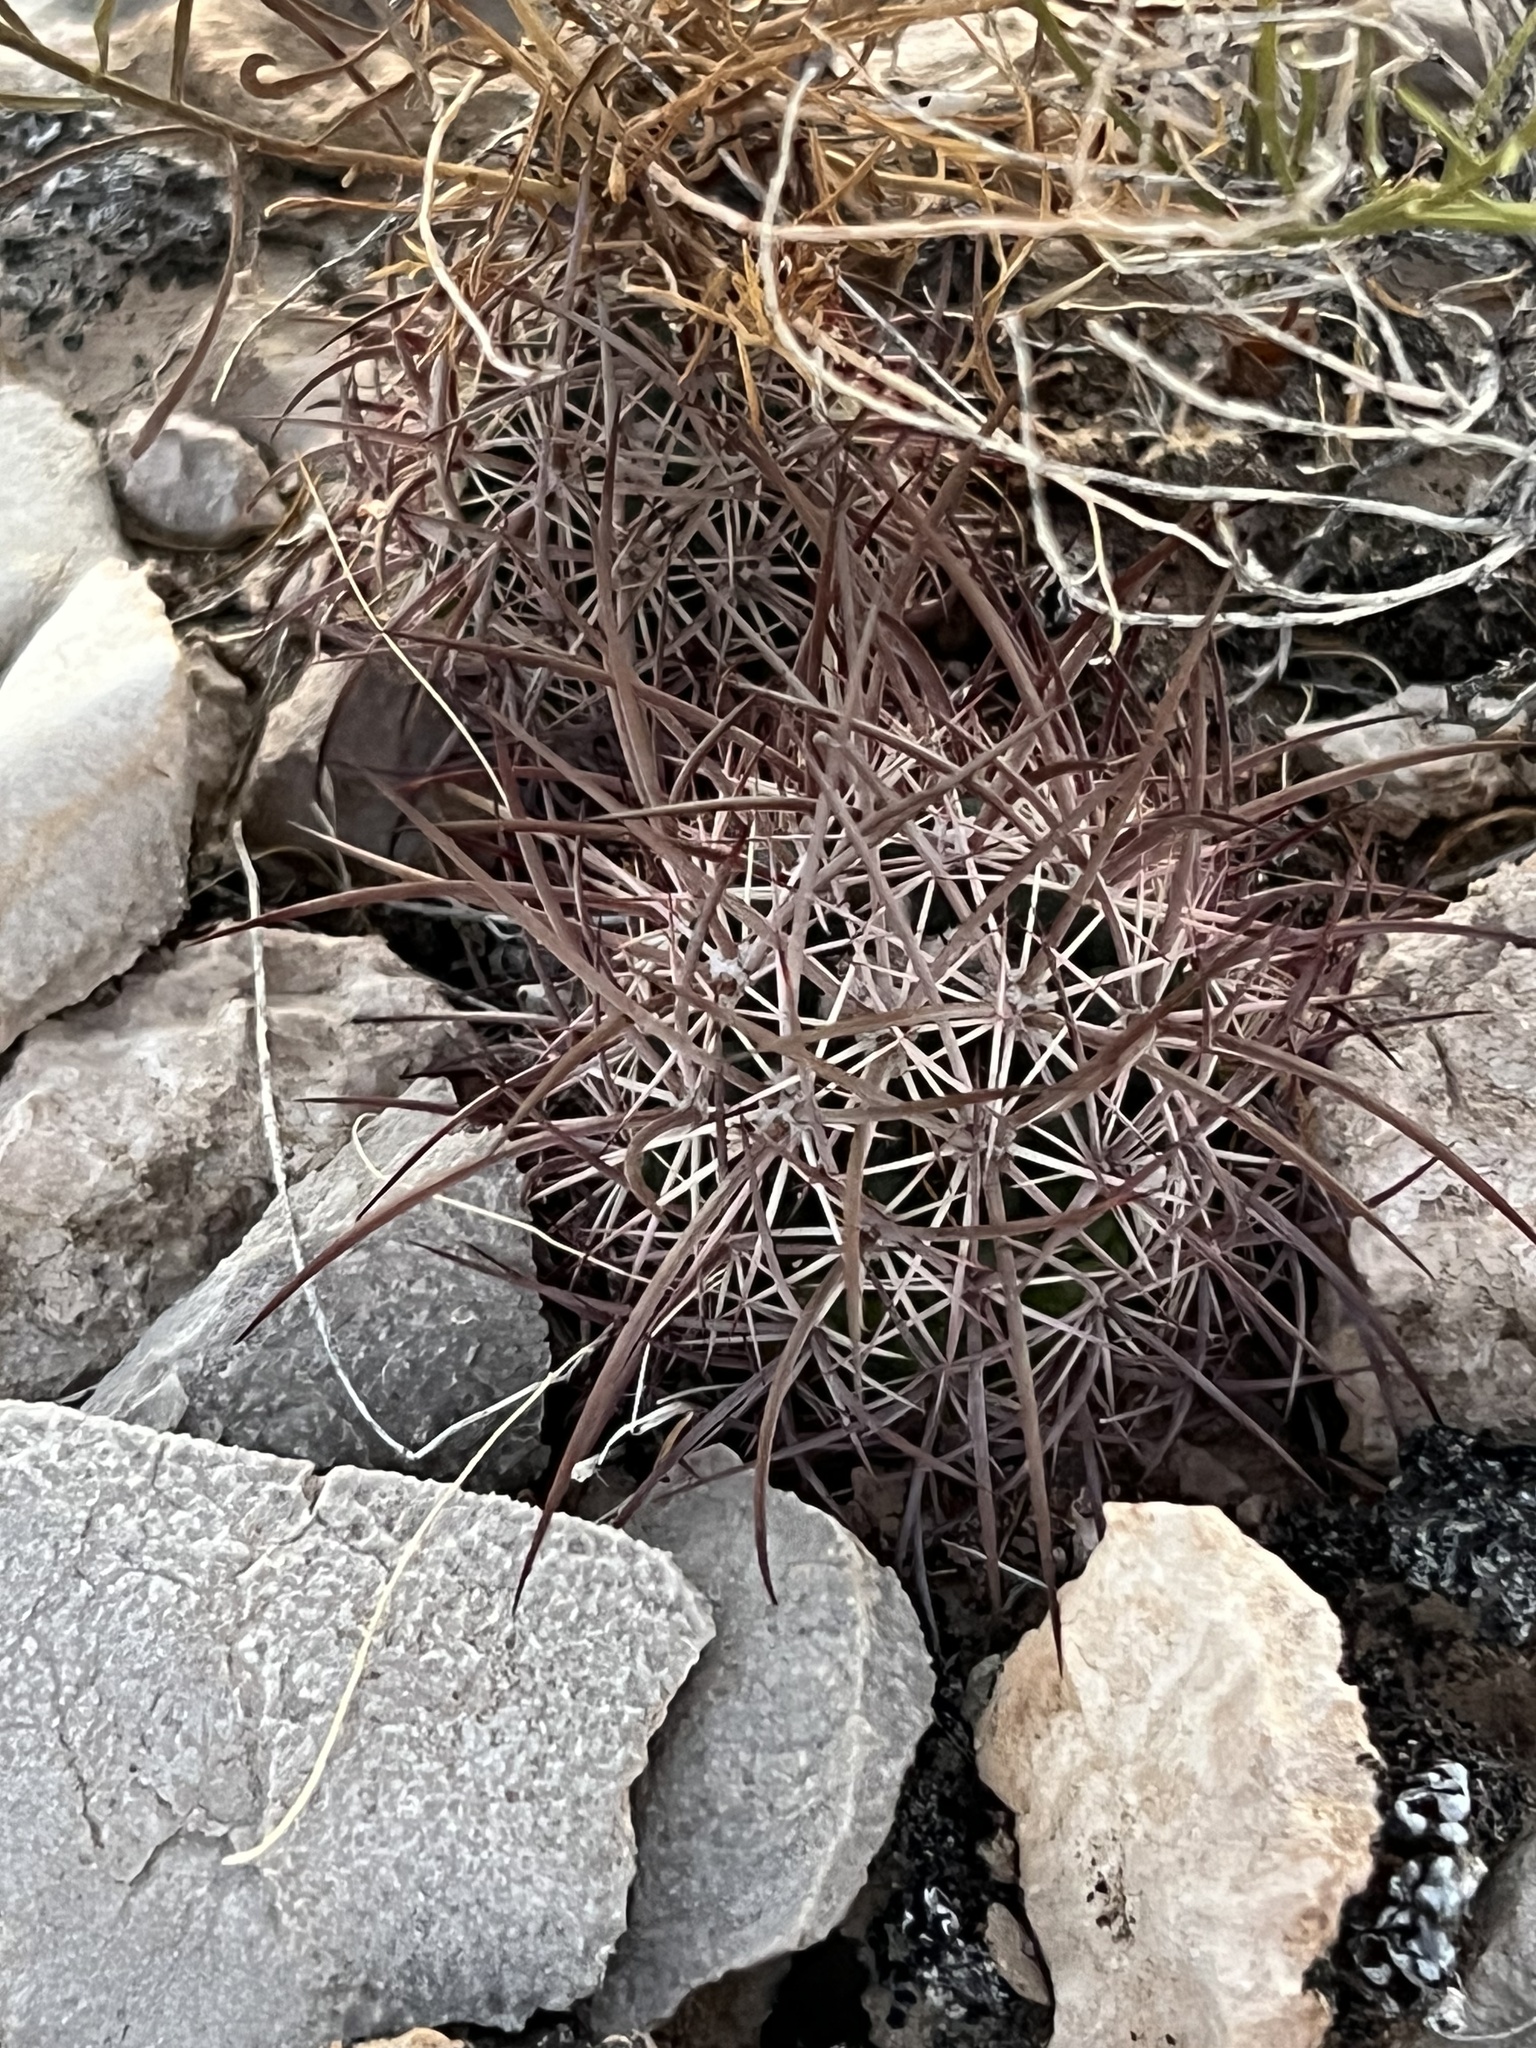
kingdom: Plantae
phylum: Tracheophyta
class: Magnoliopsida
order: Caryophyllales
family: Cactaceae
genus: Sclerocactus
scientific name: Sclerocactus johnsonii
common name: Eight-spine fishhook cactus
